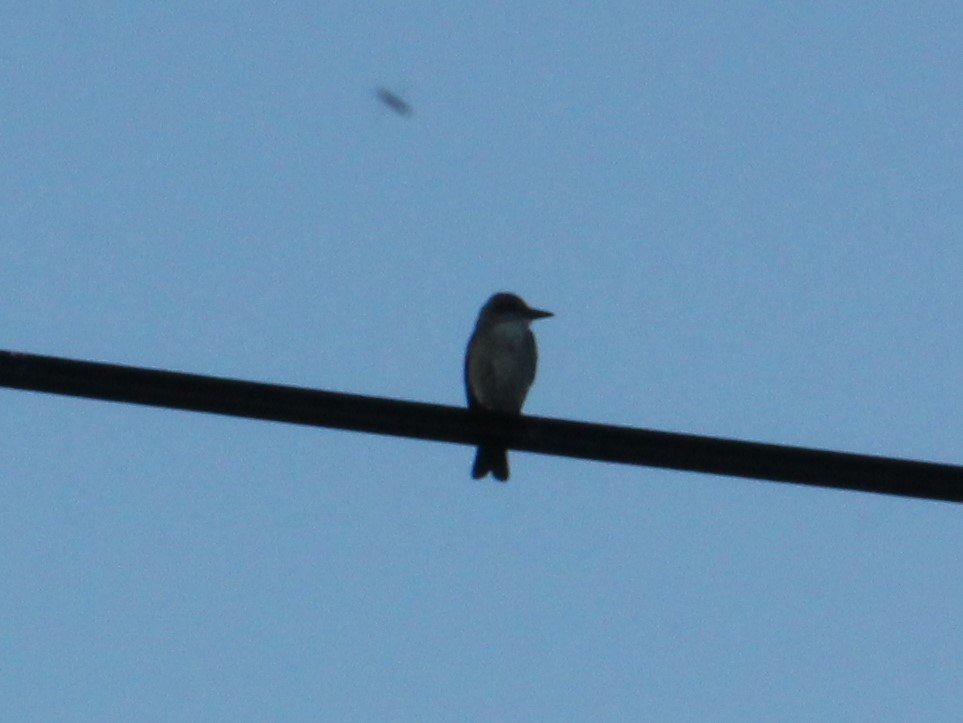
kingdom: Animalia
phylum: Chordata
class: Aves
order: Passeriformes
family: Tyrannidae
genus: Tyrannus
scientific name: Tyrannus dominicensis
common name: Gray kingbird
